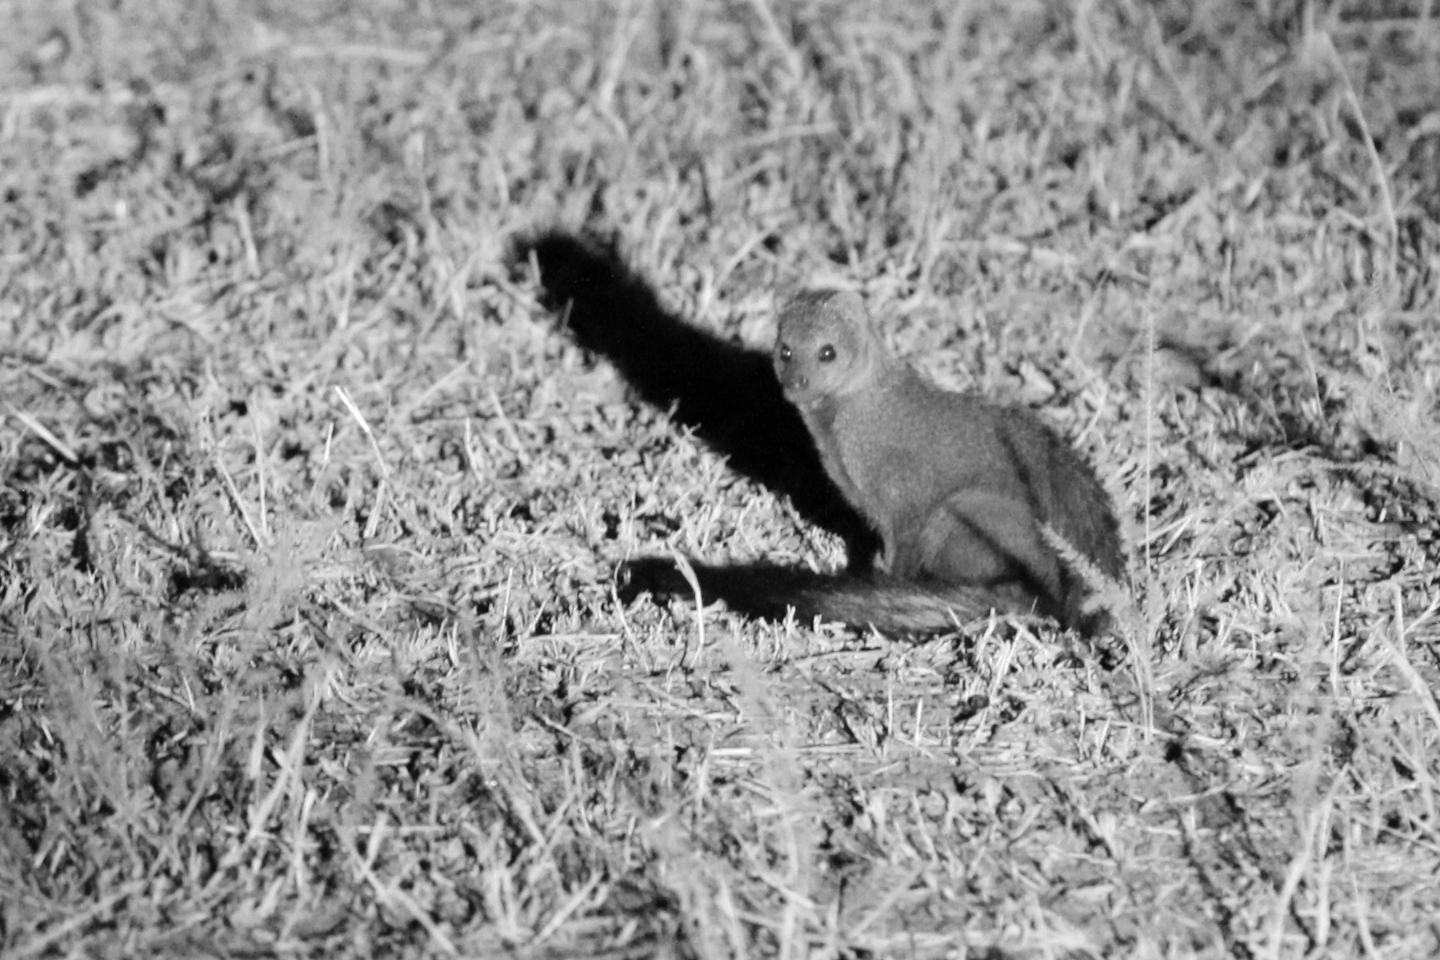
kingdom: Animalia
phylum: Chordata
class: Mammalia
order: Carnivora
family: Herpestidae
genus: Ichneumia
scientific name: Ichneumia albicauda
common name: White-tailed mongoose
